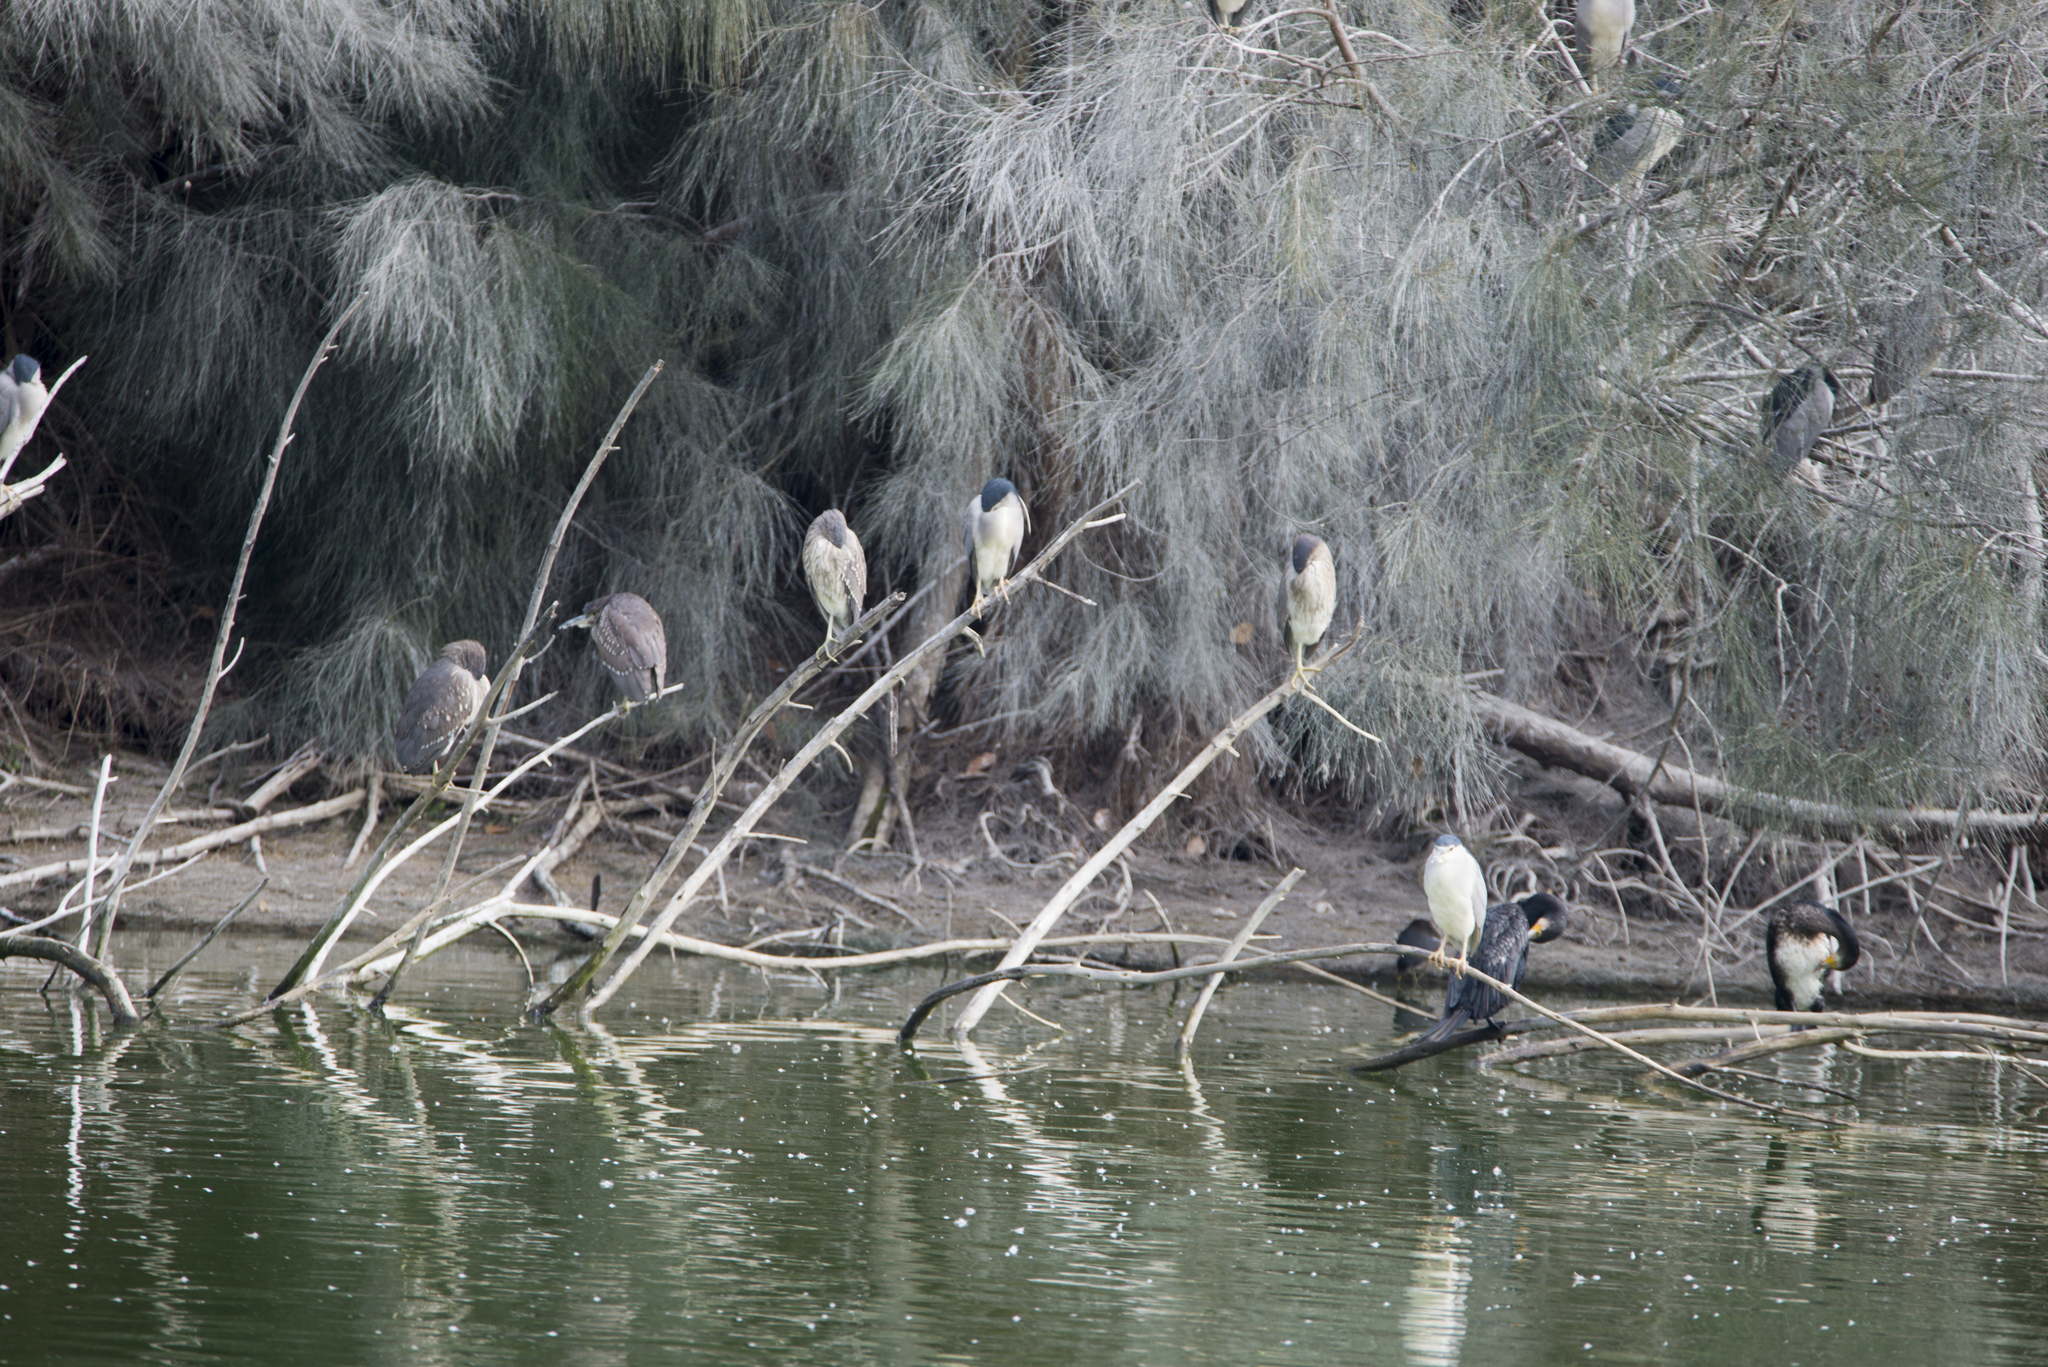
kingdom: Animalia
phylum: Chordata
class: Aves
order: Pelecaniformes
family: Ardeidae
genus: Nycticorax
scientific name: Nycticorax nycticorax
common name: Black-crowned night heron
